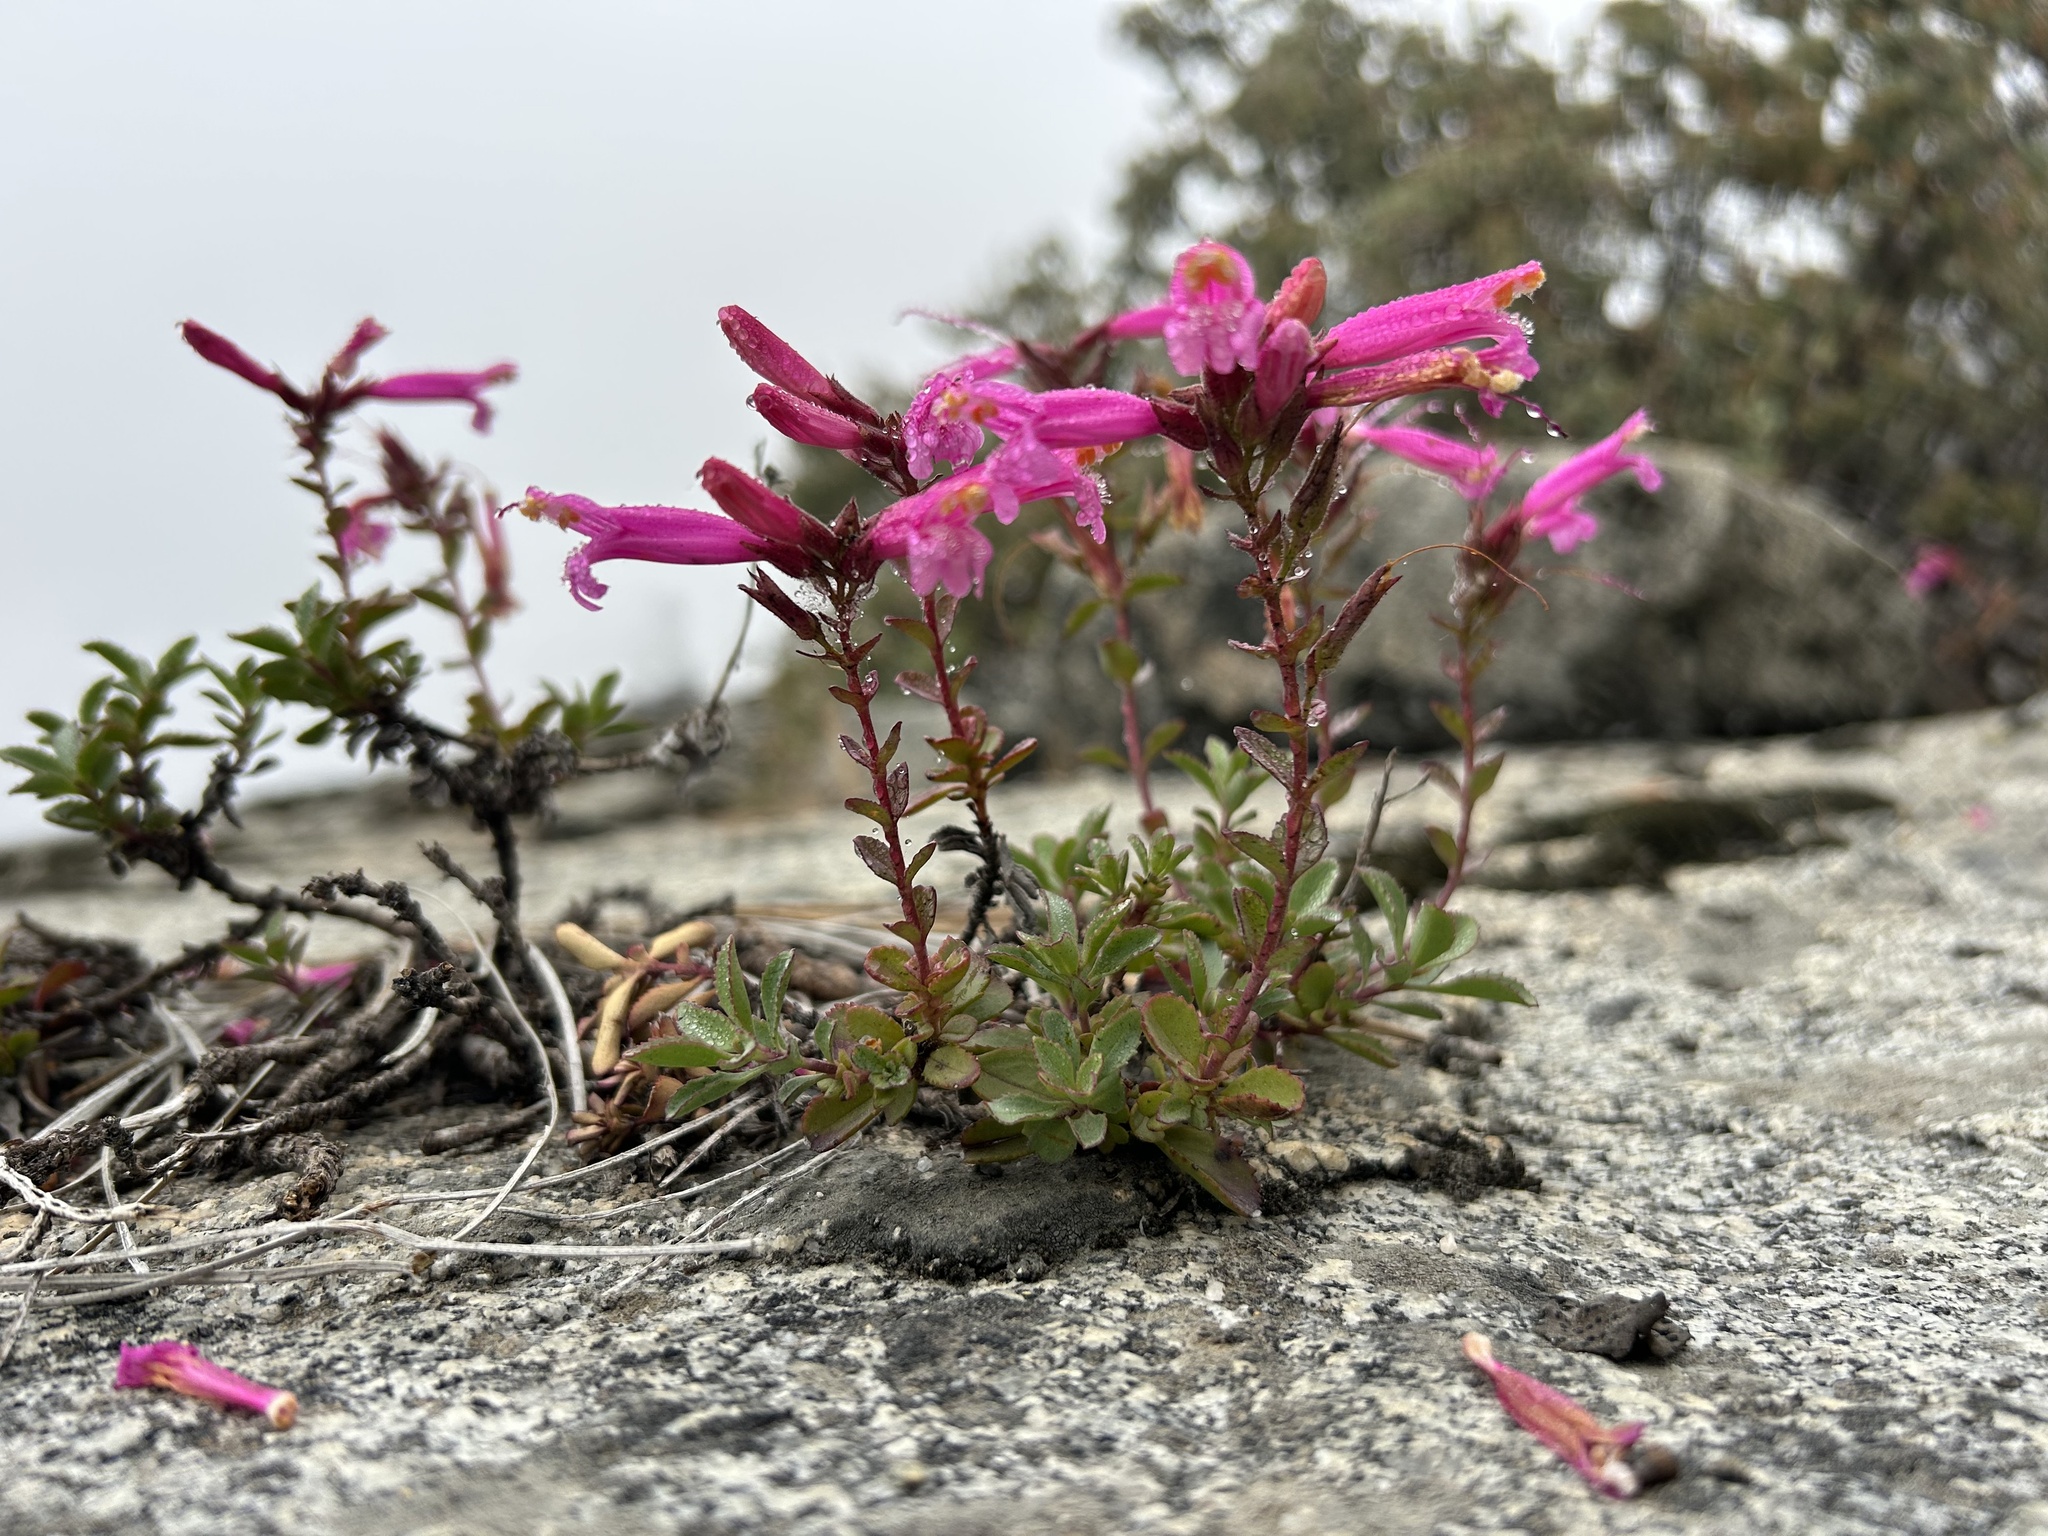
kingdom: Plantae
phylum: Tracheophyta
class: Magnoliopsida
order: Lamiales
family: Plantaginaceae
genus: Penstemon
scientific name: Penstemon newberryi
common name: Mountain-pride
